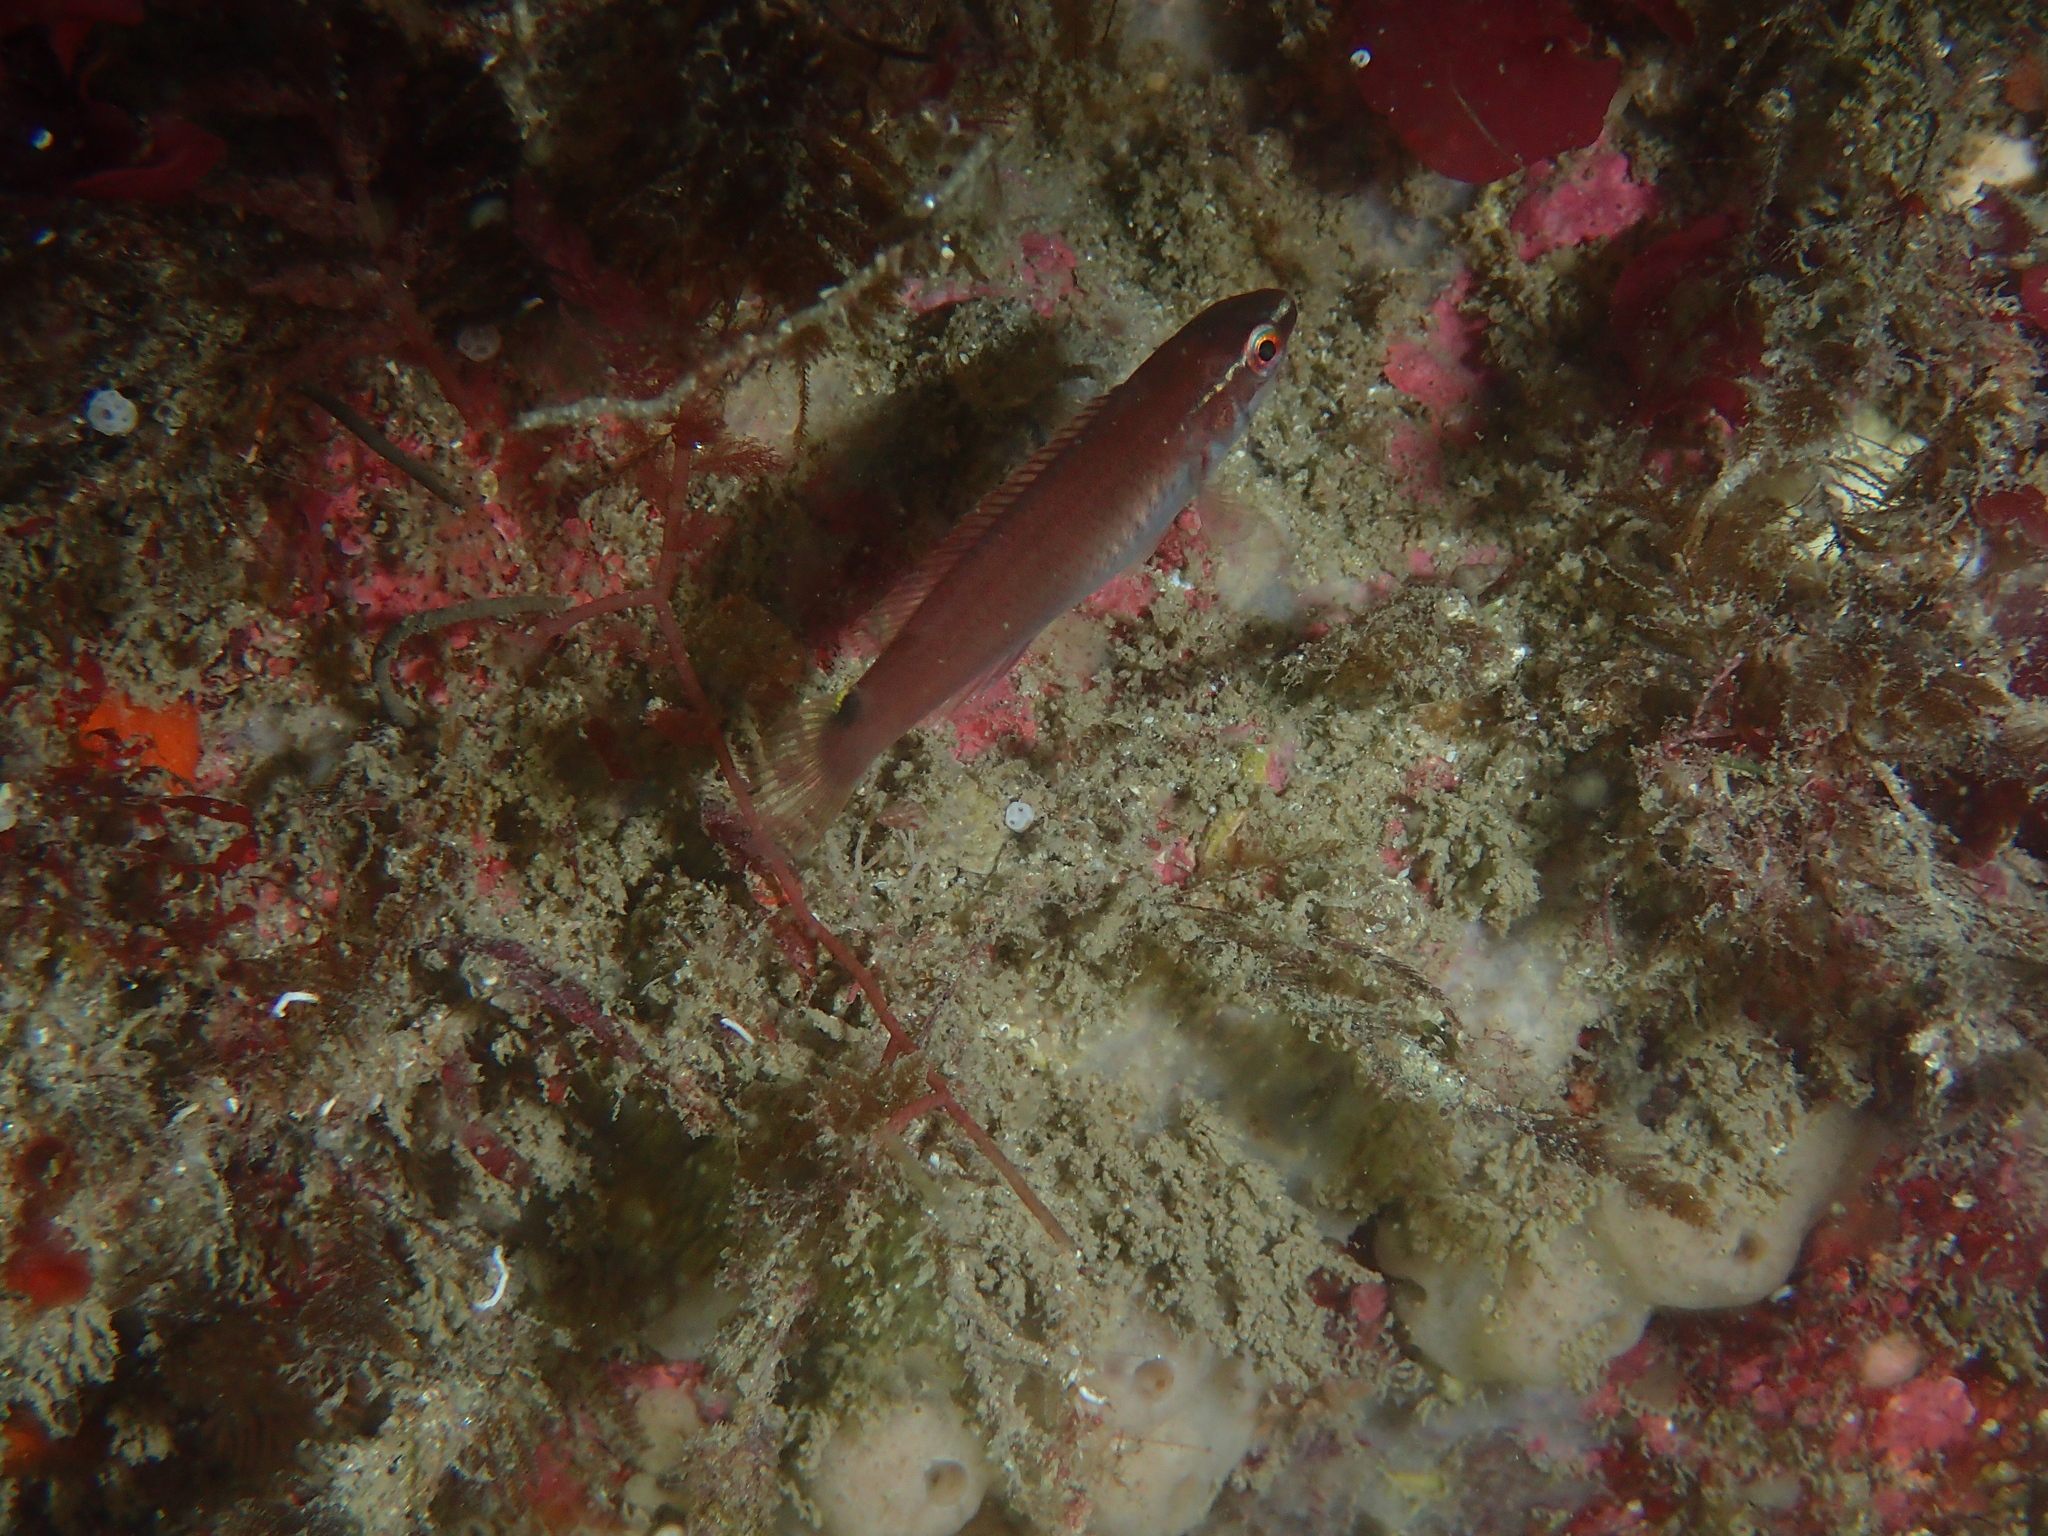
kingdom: Animalia
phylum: Chordata
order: Perciformes
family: Labridae
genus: Ctenolabrus
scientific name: Ctenolabrus rupestris
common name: Goldsinny
